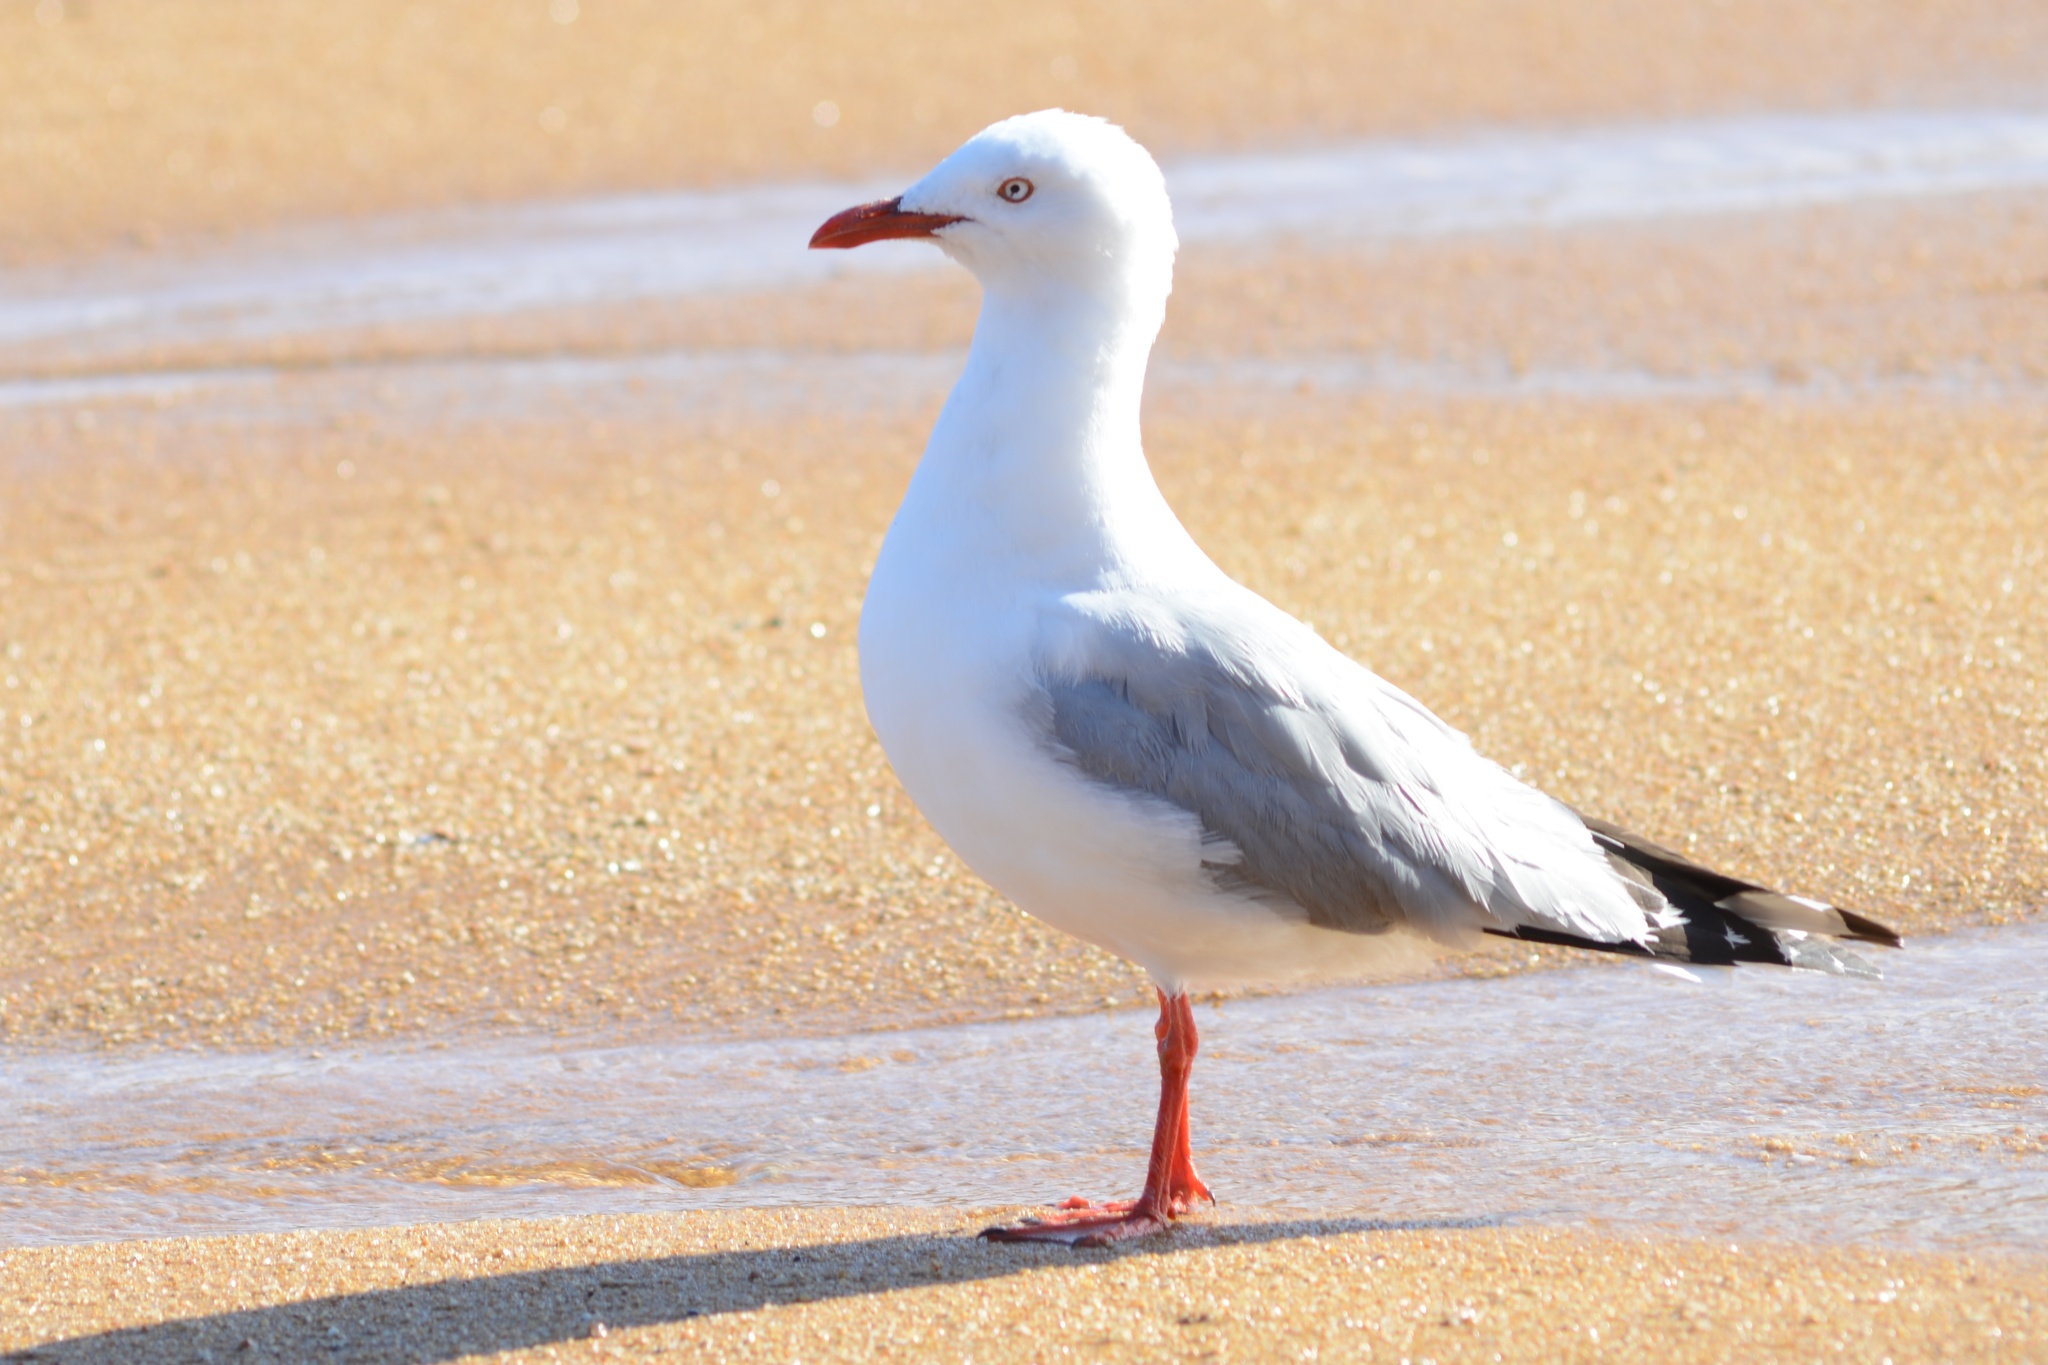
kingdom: Animalia
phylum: Chordata
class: Aves
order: Charadriiformes
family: Laridae
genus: Chroicocephalus
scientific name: Chroicocephalus novaehollandiae
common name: Silver gull
